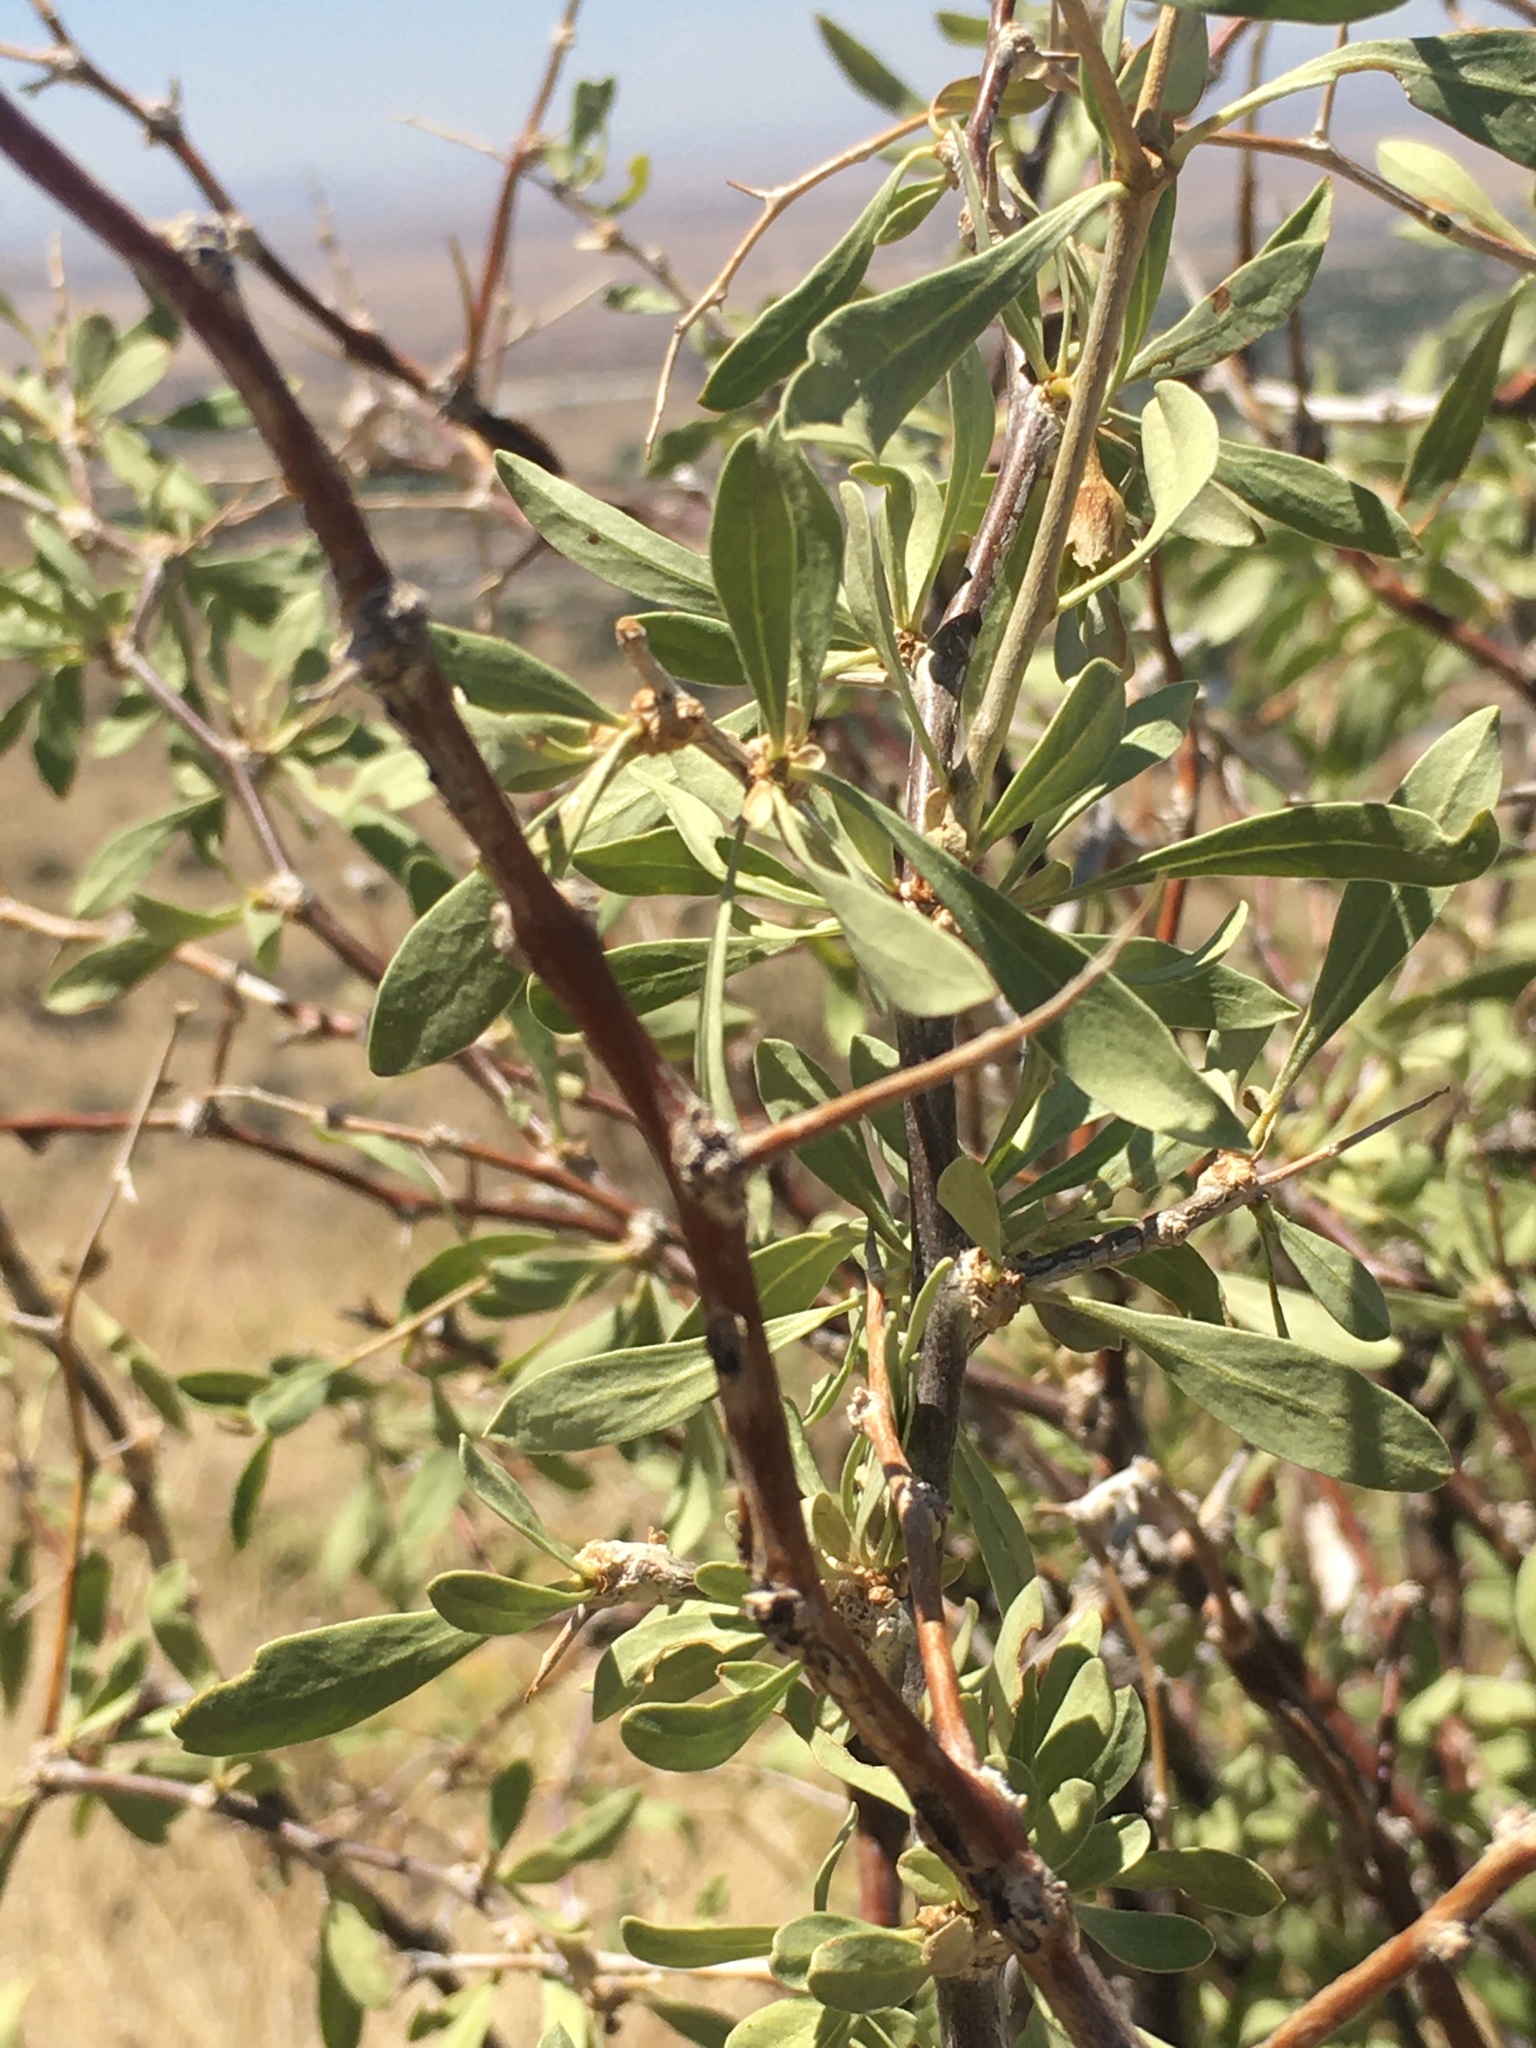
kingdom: Plantae
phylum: Tracheophyta
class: Magnoliopsida
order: Solanales
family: Solanaceae
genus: Lycium
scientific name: Lycium pallidum
